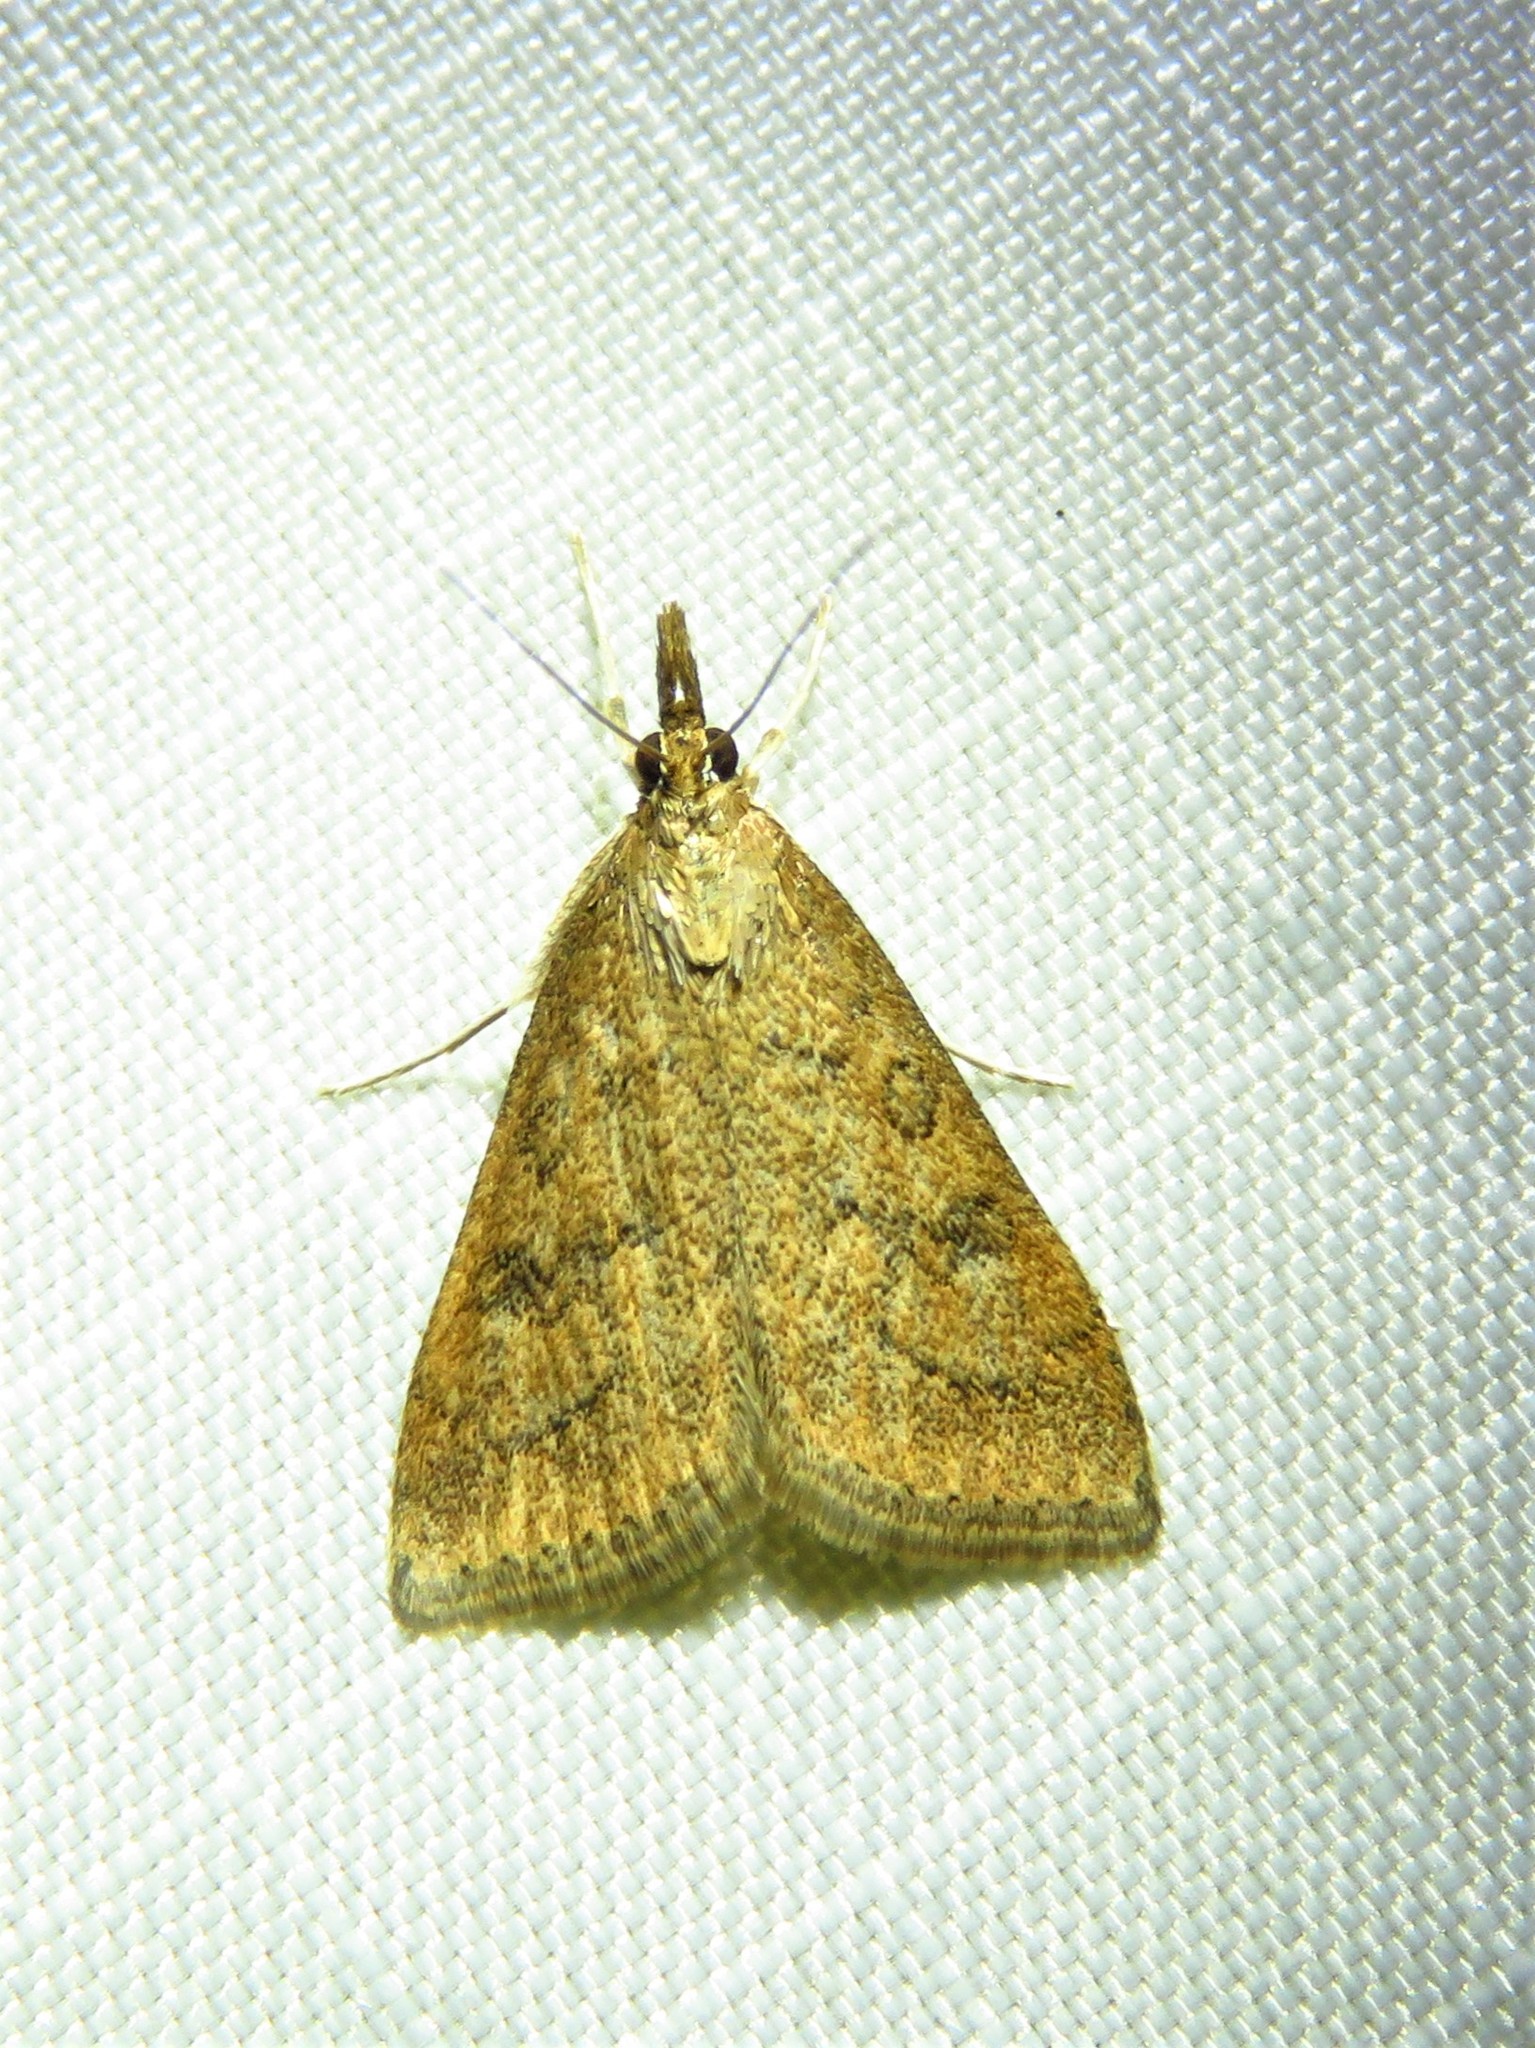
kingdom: Animalia
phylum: Arthropoda
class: Insecta
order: Lepidoptera
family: Crambidae
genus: Udea
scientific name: Udea rubigalis
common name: Celery leaftier moth
